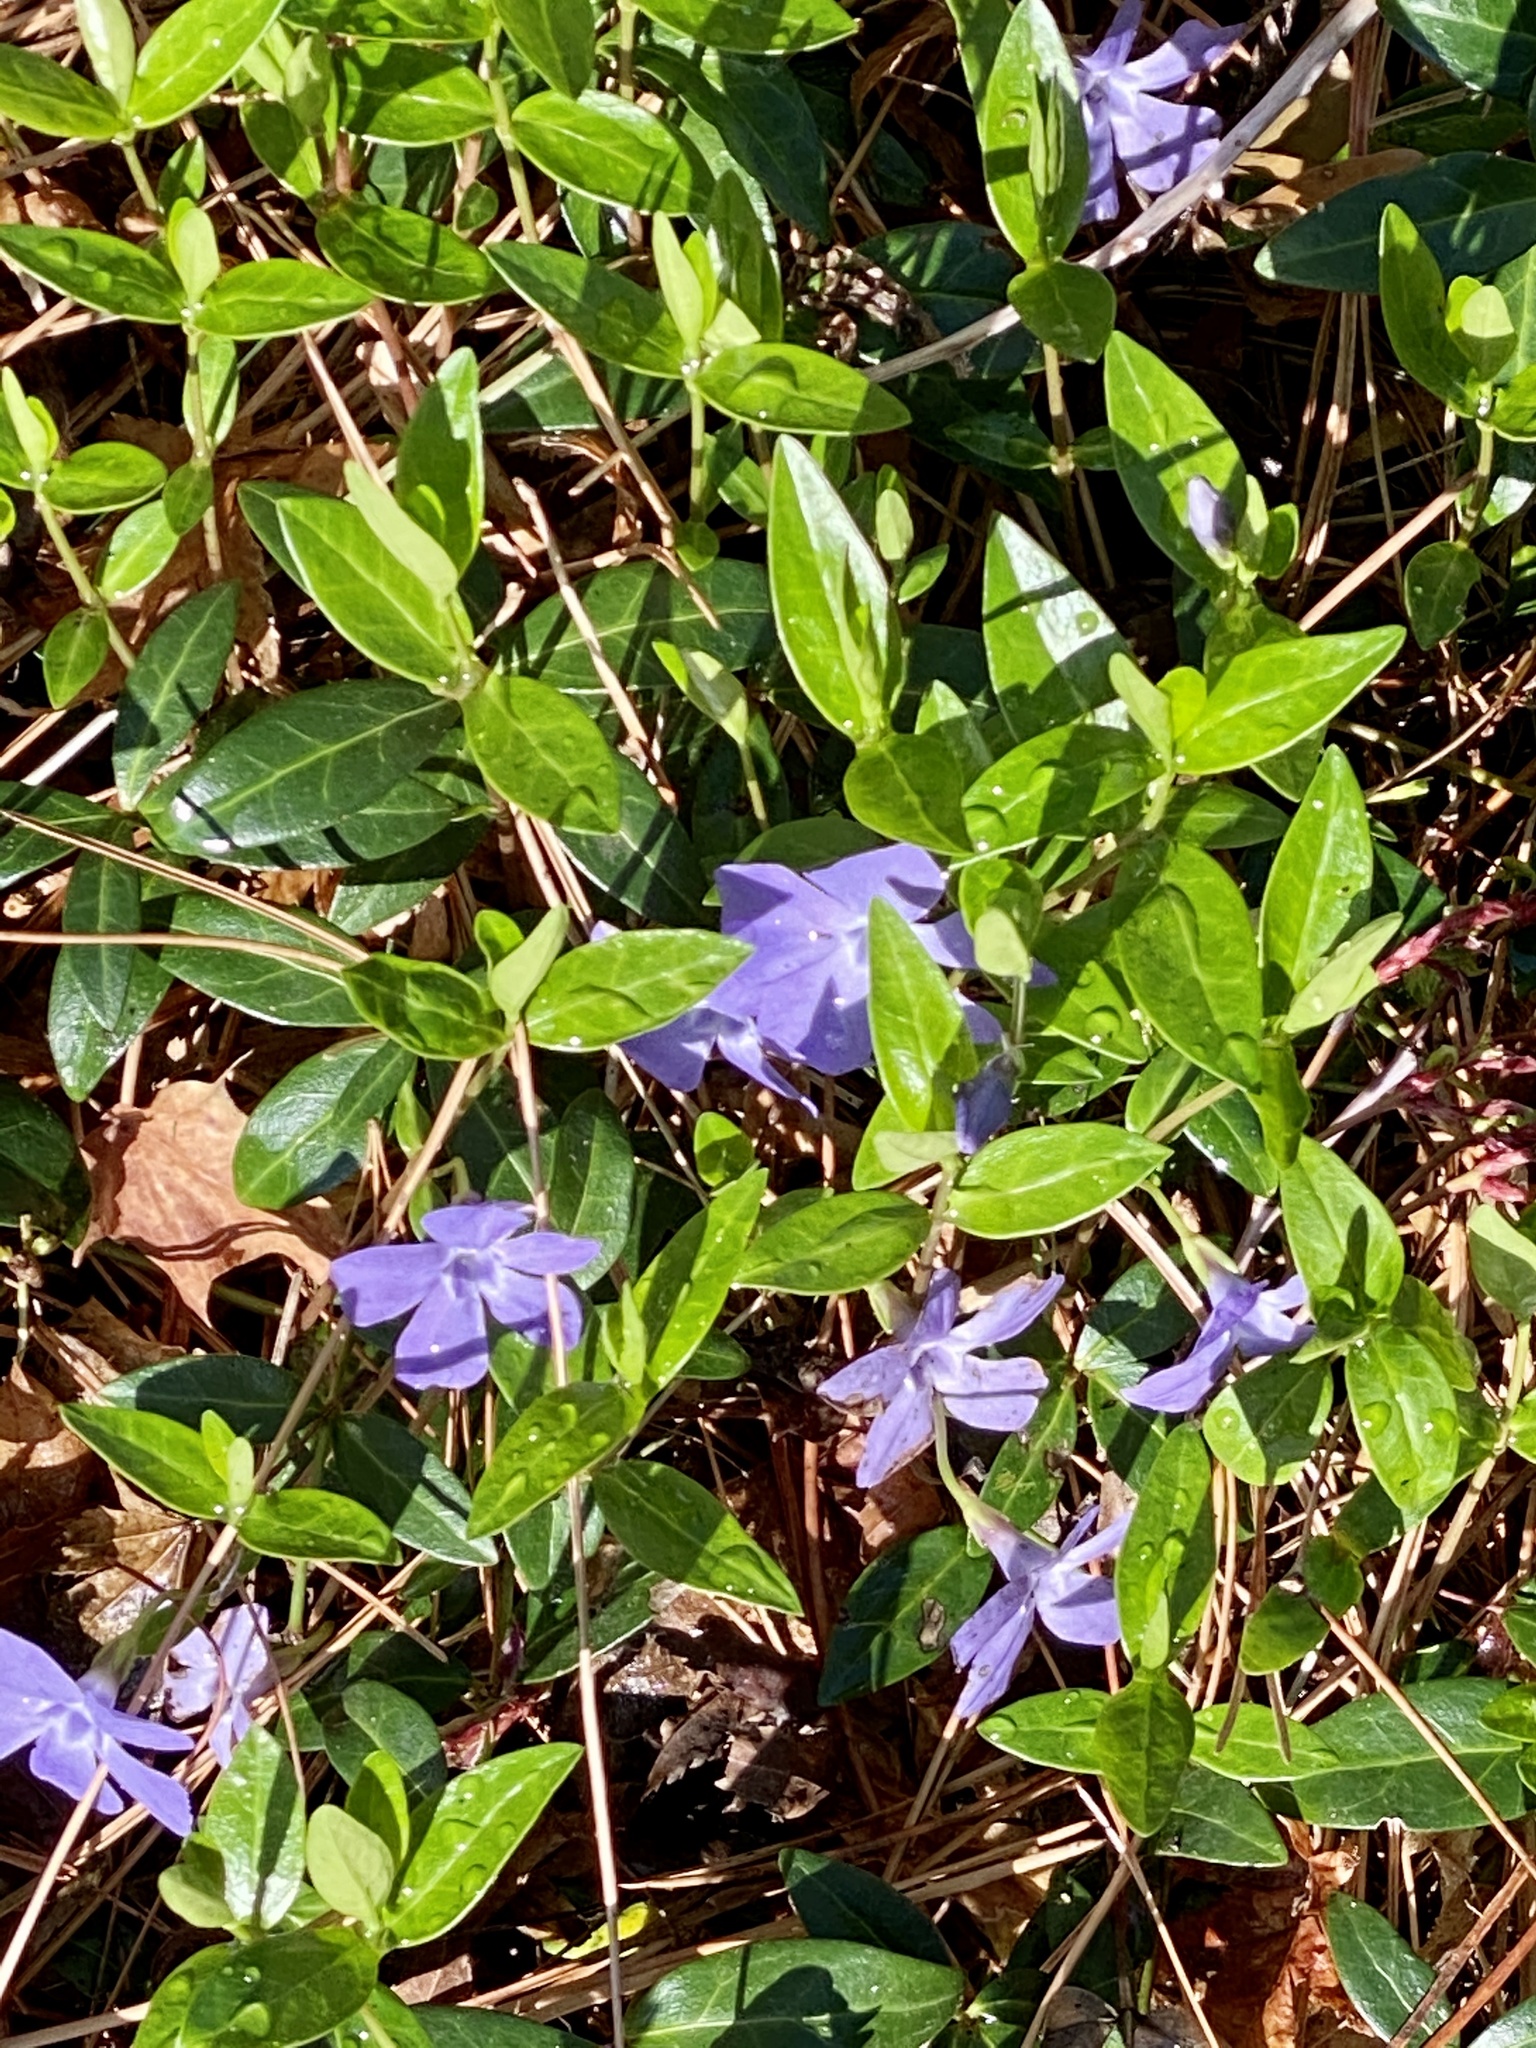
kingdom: Plantae
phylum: Tracheophyta
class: Magnoliopsida
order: Gentianales
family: Apocynaceae
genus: Vinca
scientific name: Vinca minor
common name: Lesser periwinkle
